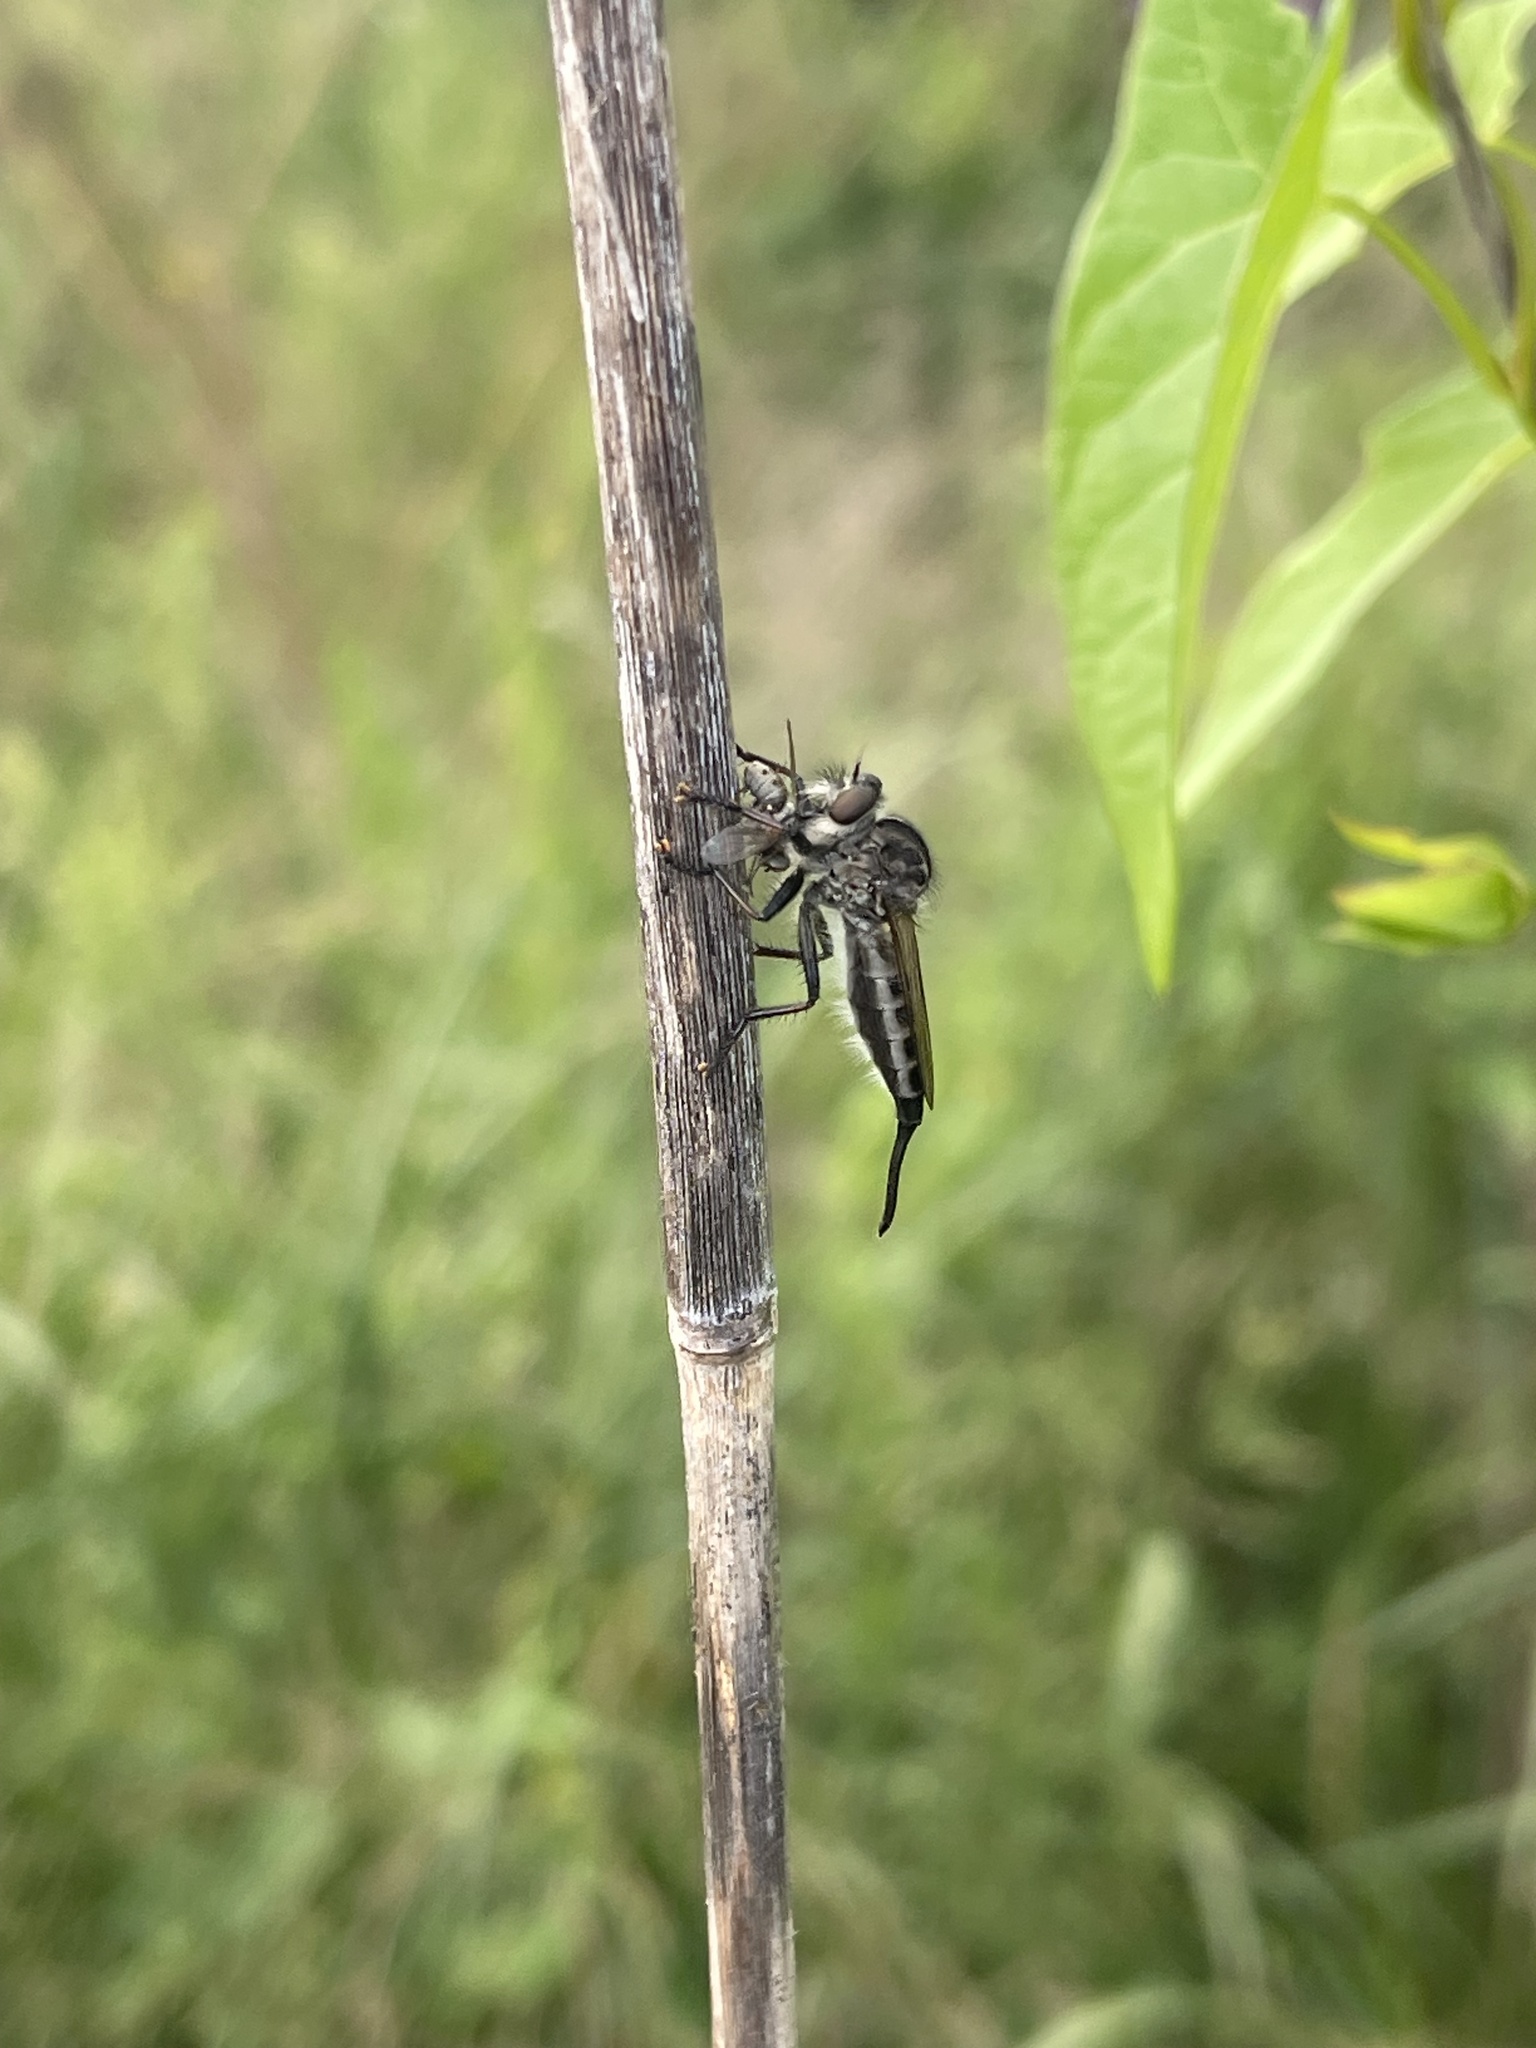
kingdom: Animalia
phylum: Arthropoda
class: Insecta
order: Diptera
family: Asilidae
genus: Efferia
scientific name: Efferia aestuans
